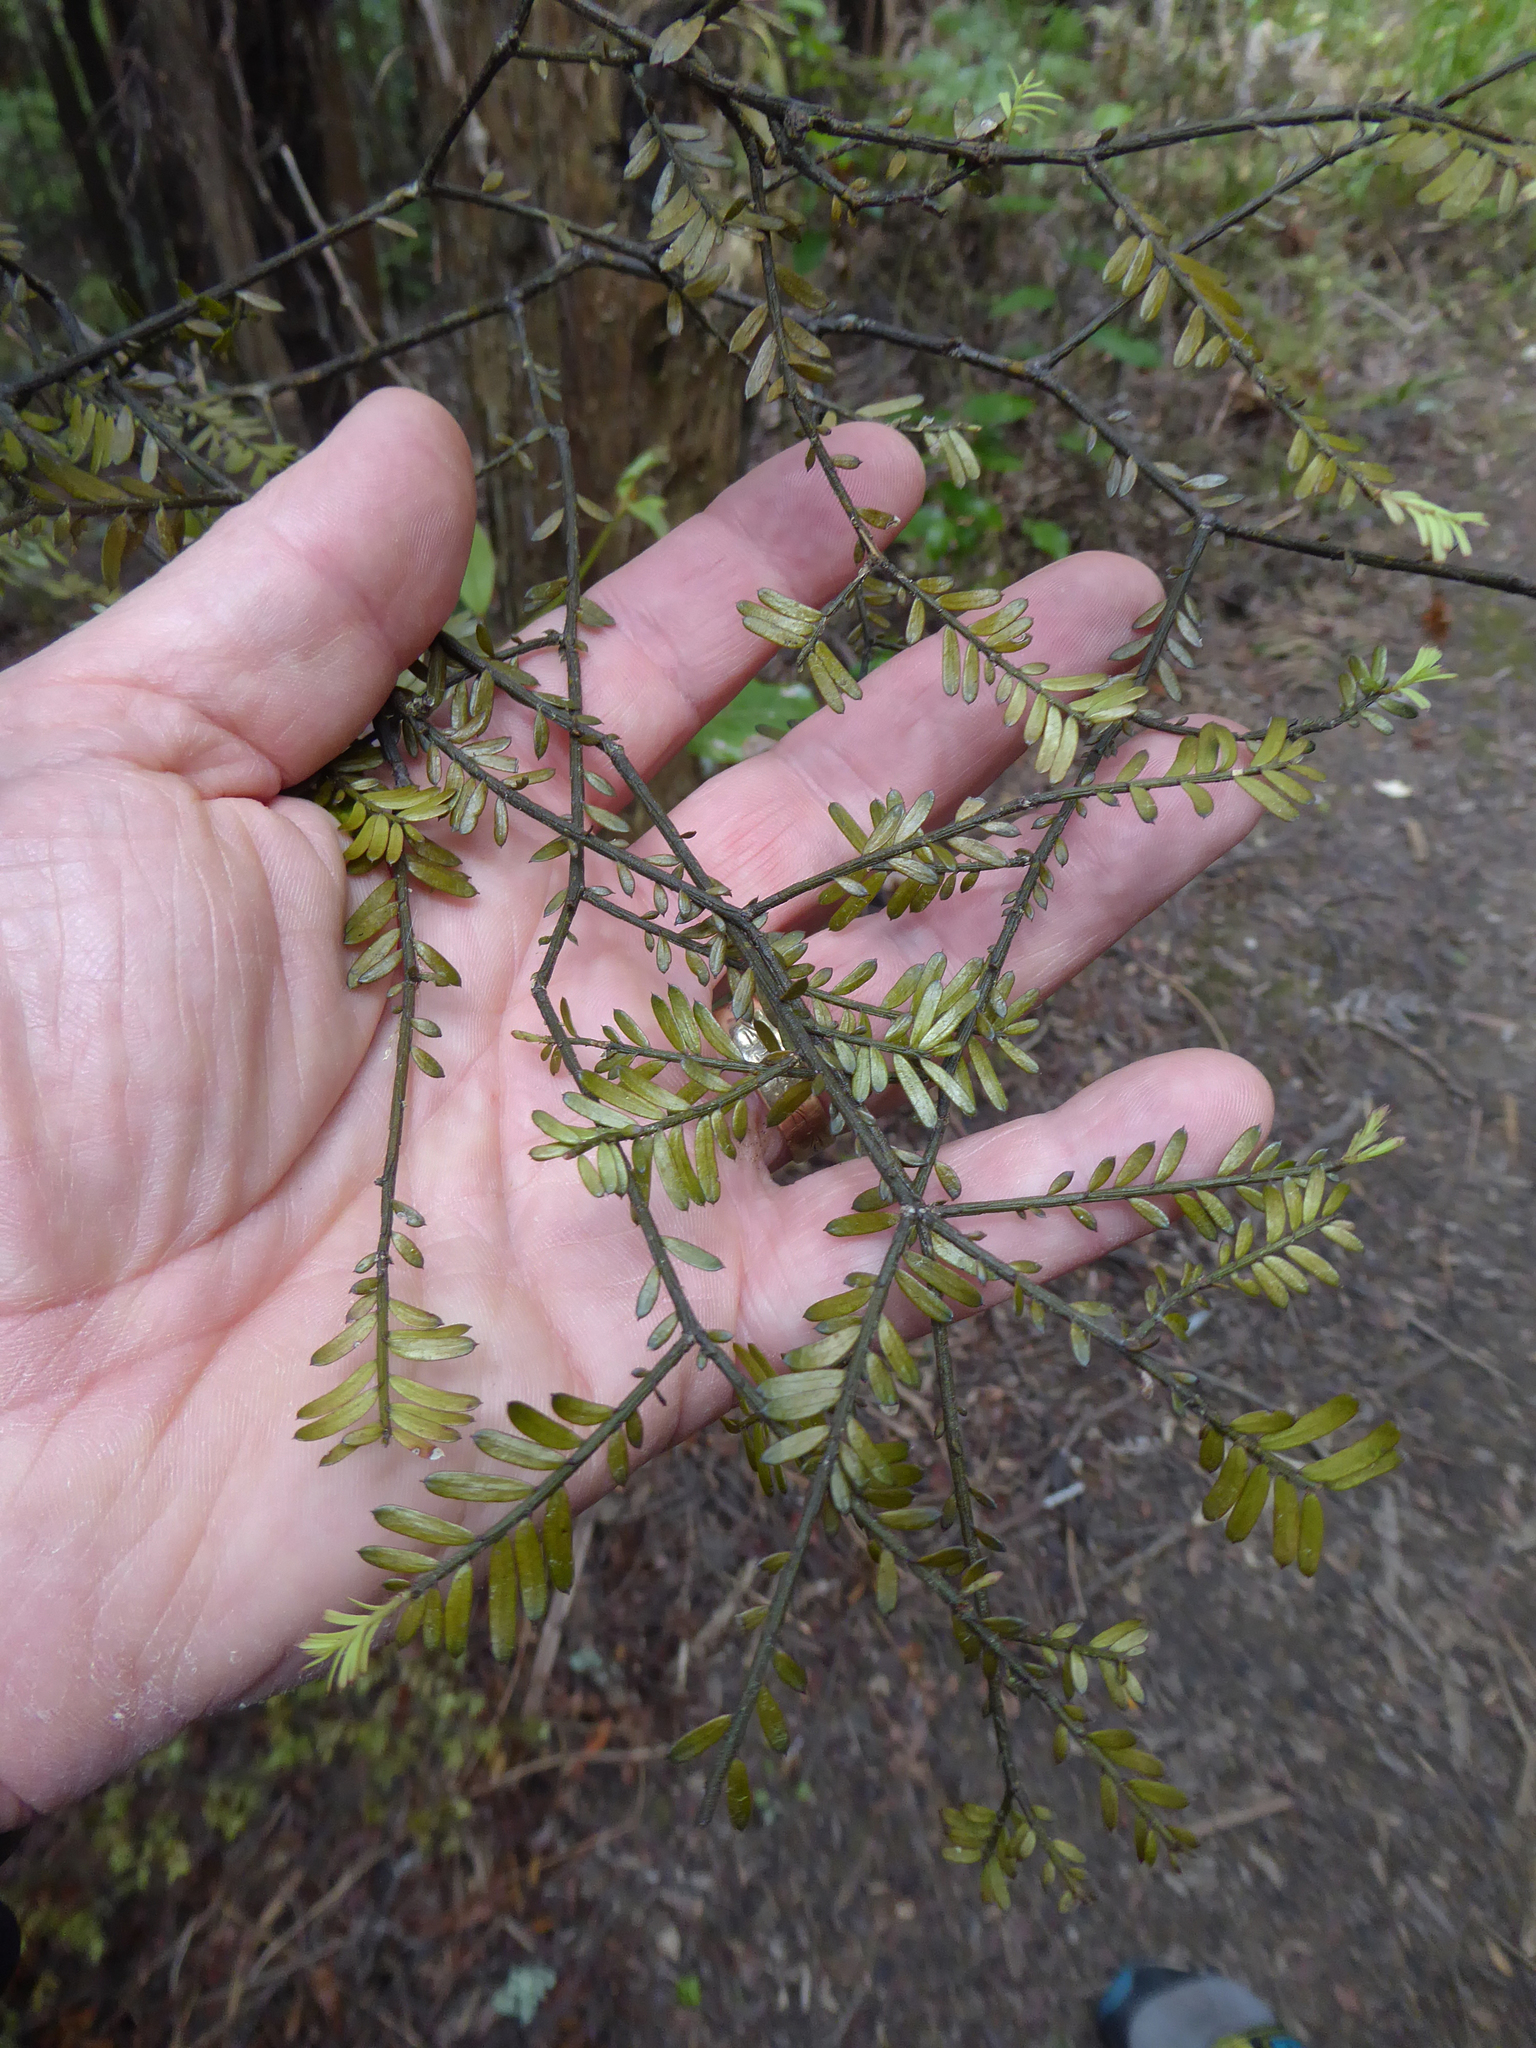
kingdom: Plantae
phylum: Tracheophyta
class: Pinopsida
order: Pinales
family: Podocarpaceae
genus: Prumnopitys
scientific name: Prumnopitys taxifolia
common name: Matai
